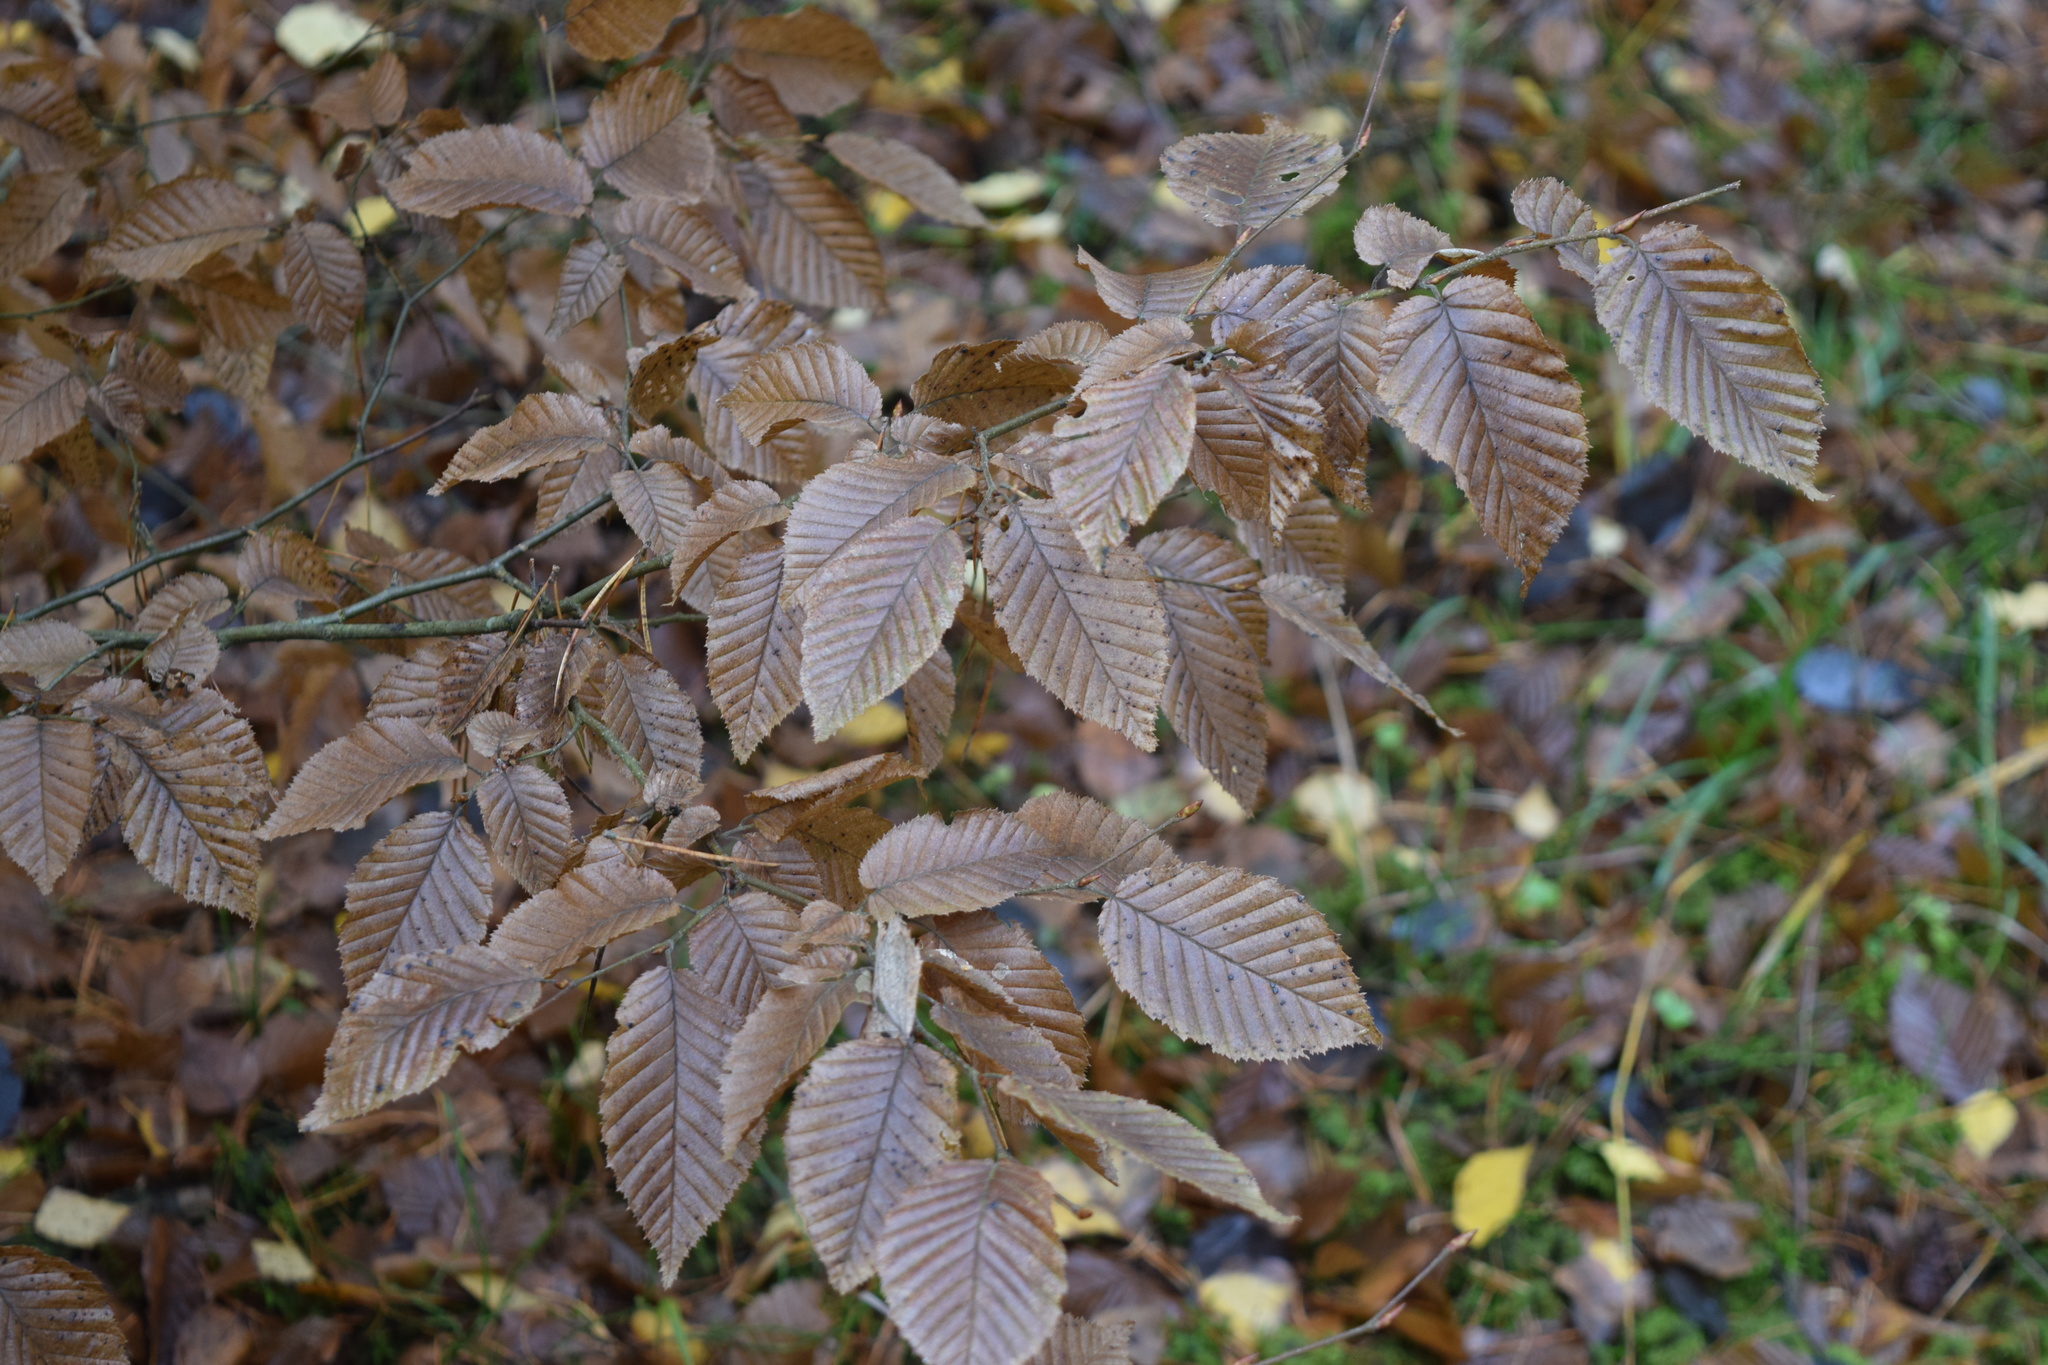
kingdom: Plantae
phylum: Tracheophyta
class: Magnoliopsida
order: Fagales
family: Betulaceae
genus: Carpinus
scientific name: Carpinus betulus
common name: Hornbeam
